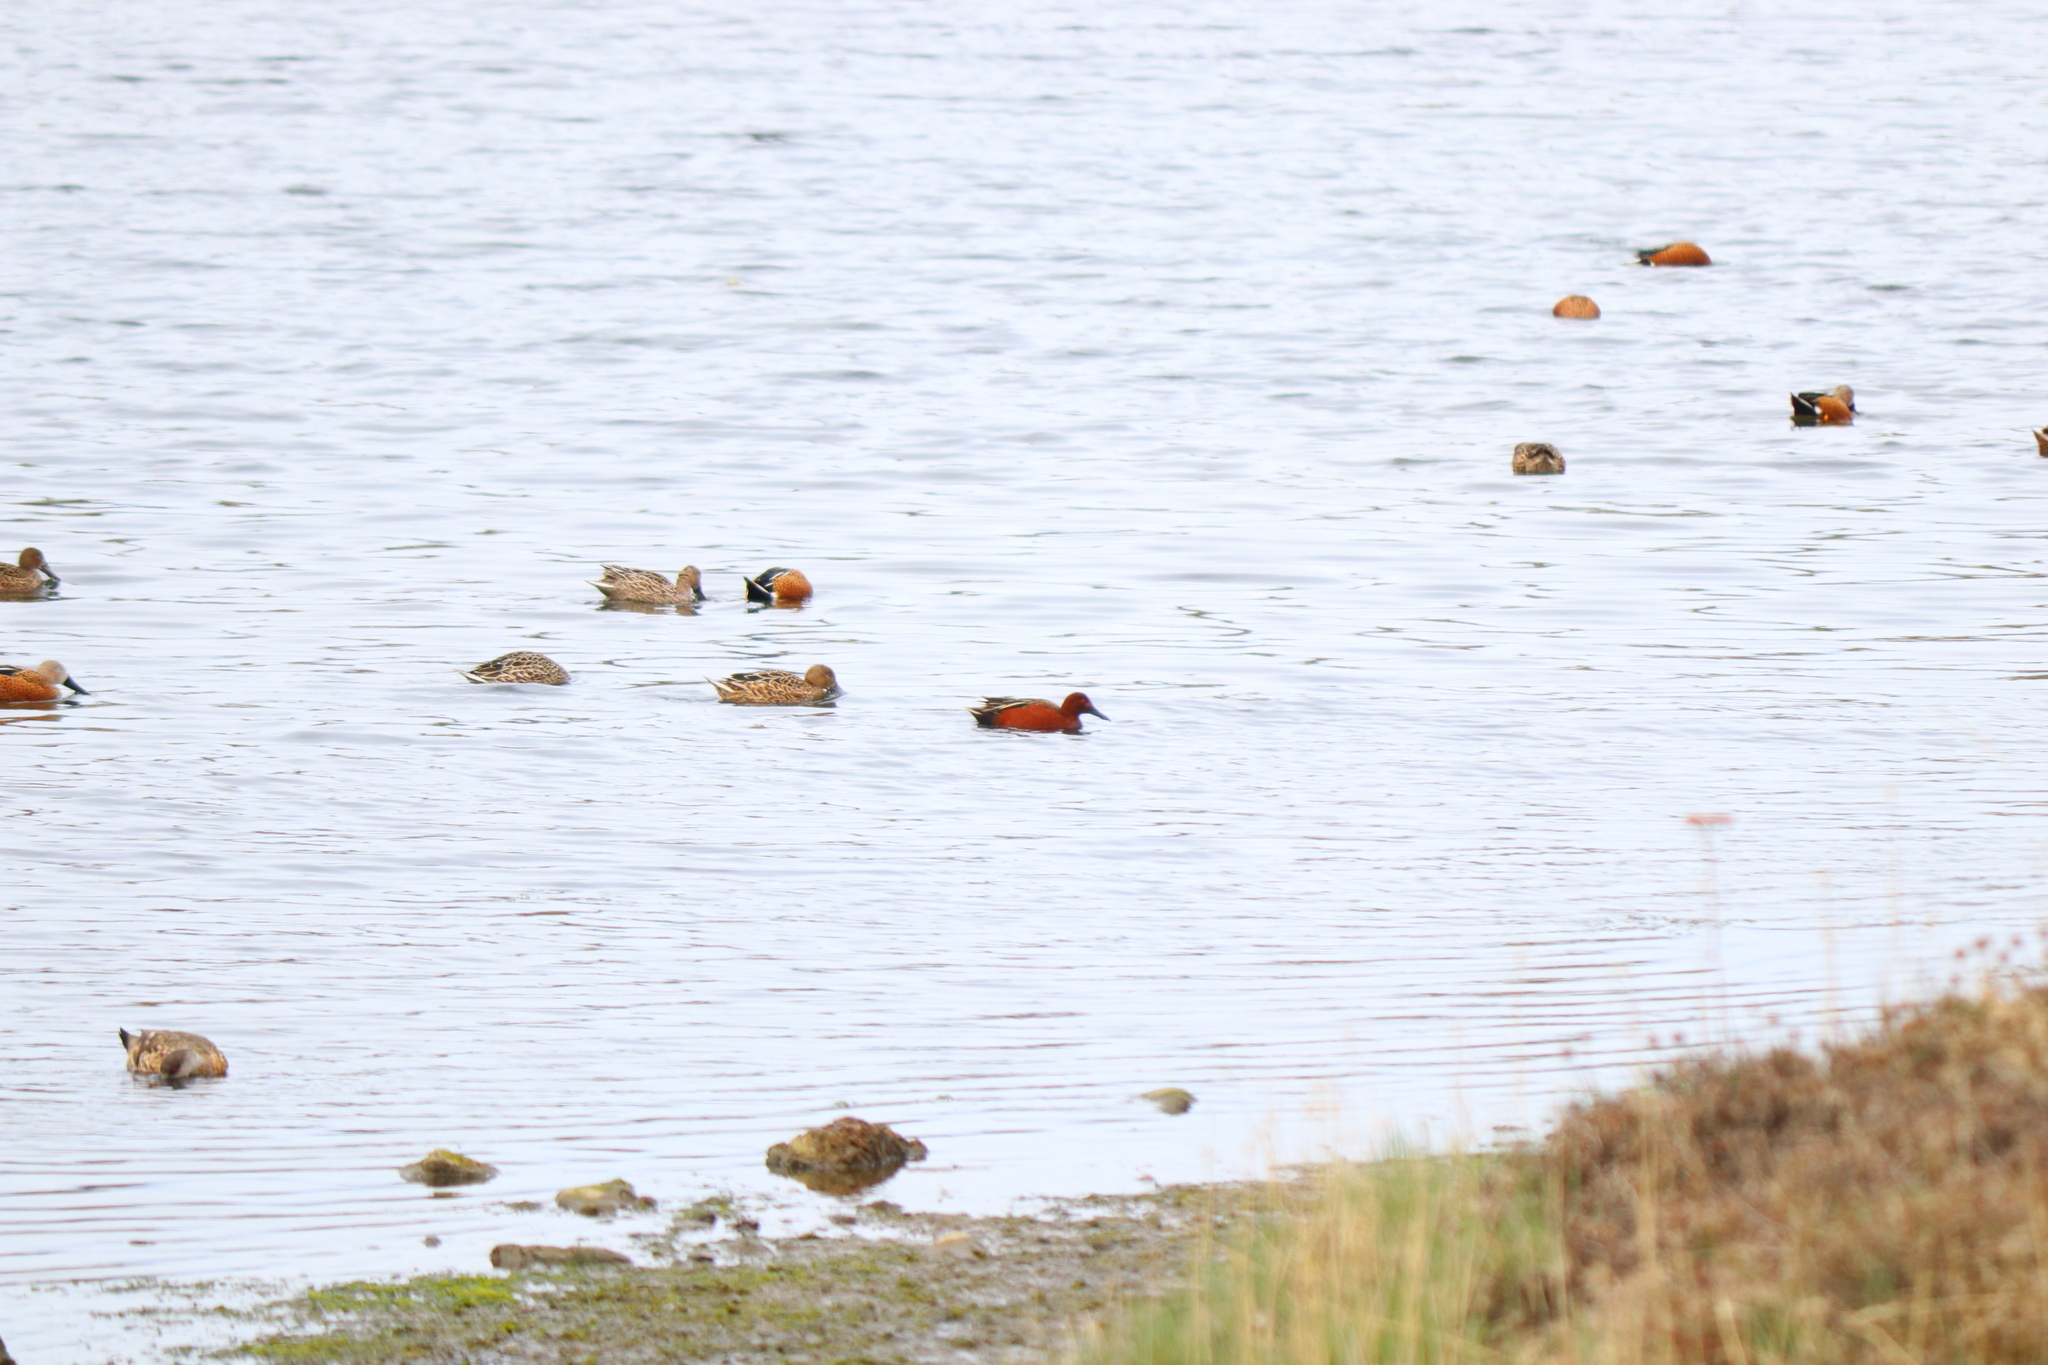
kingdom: Animalia
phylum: Chordata
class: Aves
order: Anseriformes
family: Anatidae
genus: Spatula
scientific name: Spatula cyanoptera
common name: Cinnamon teal
